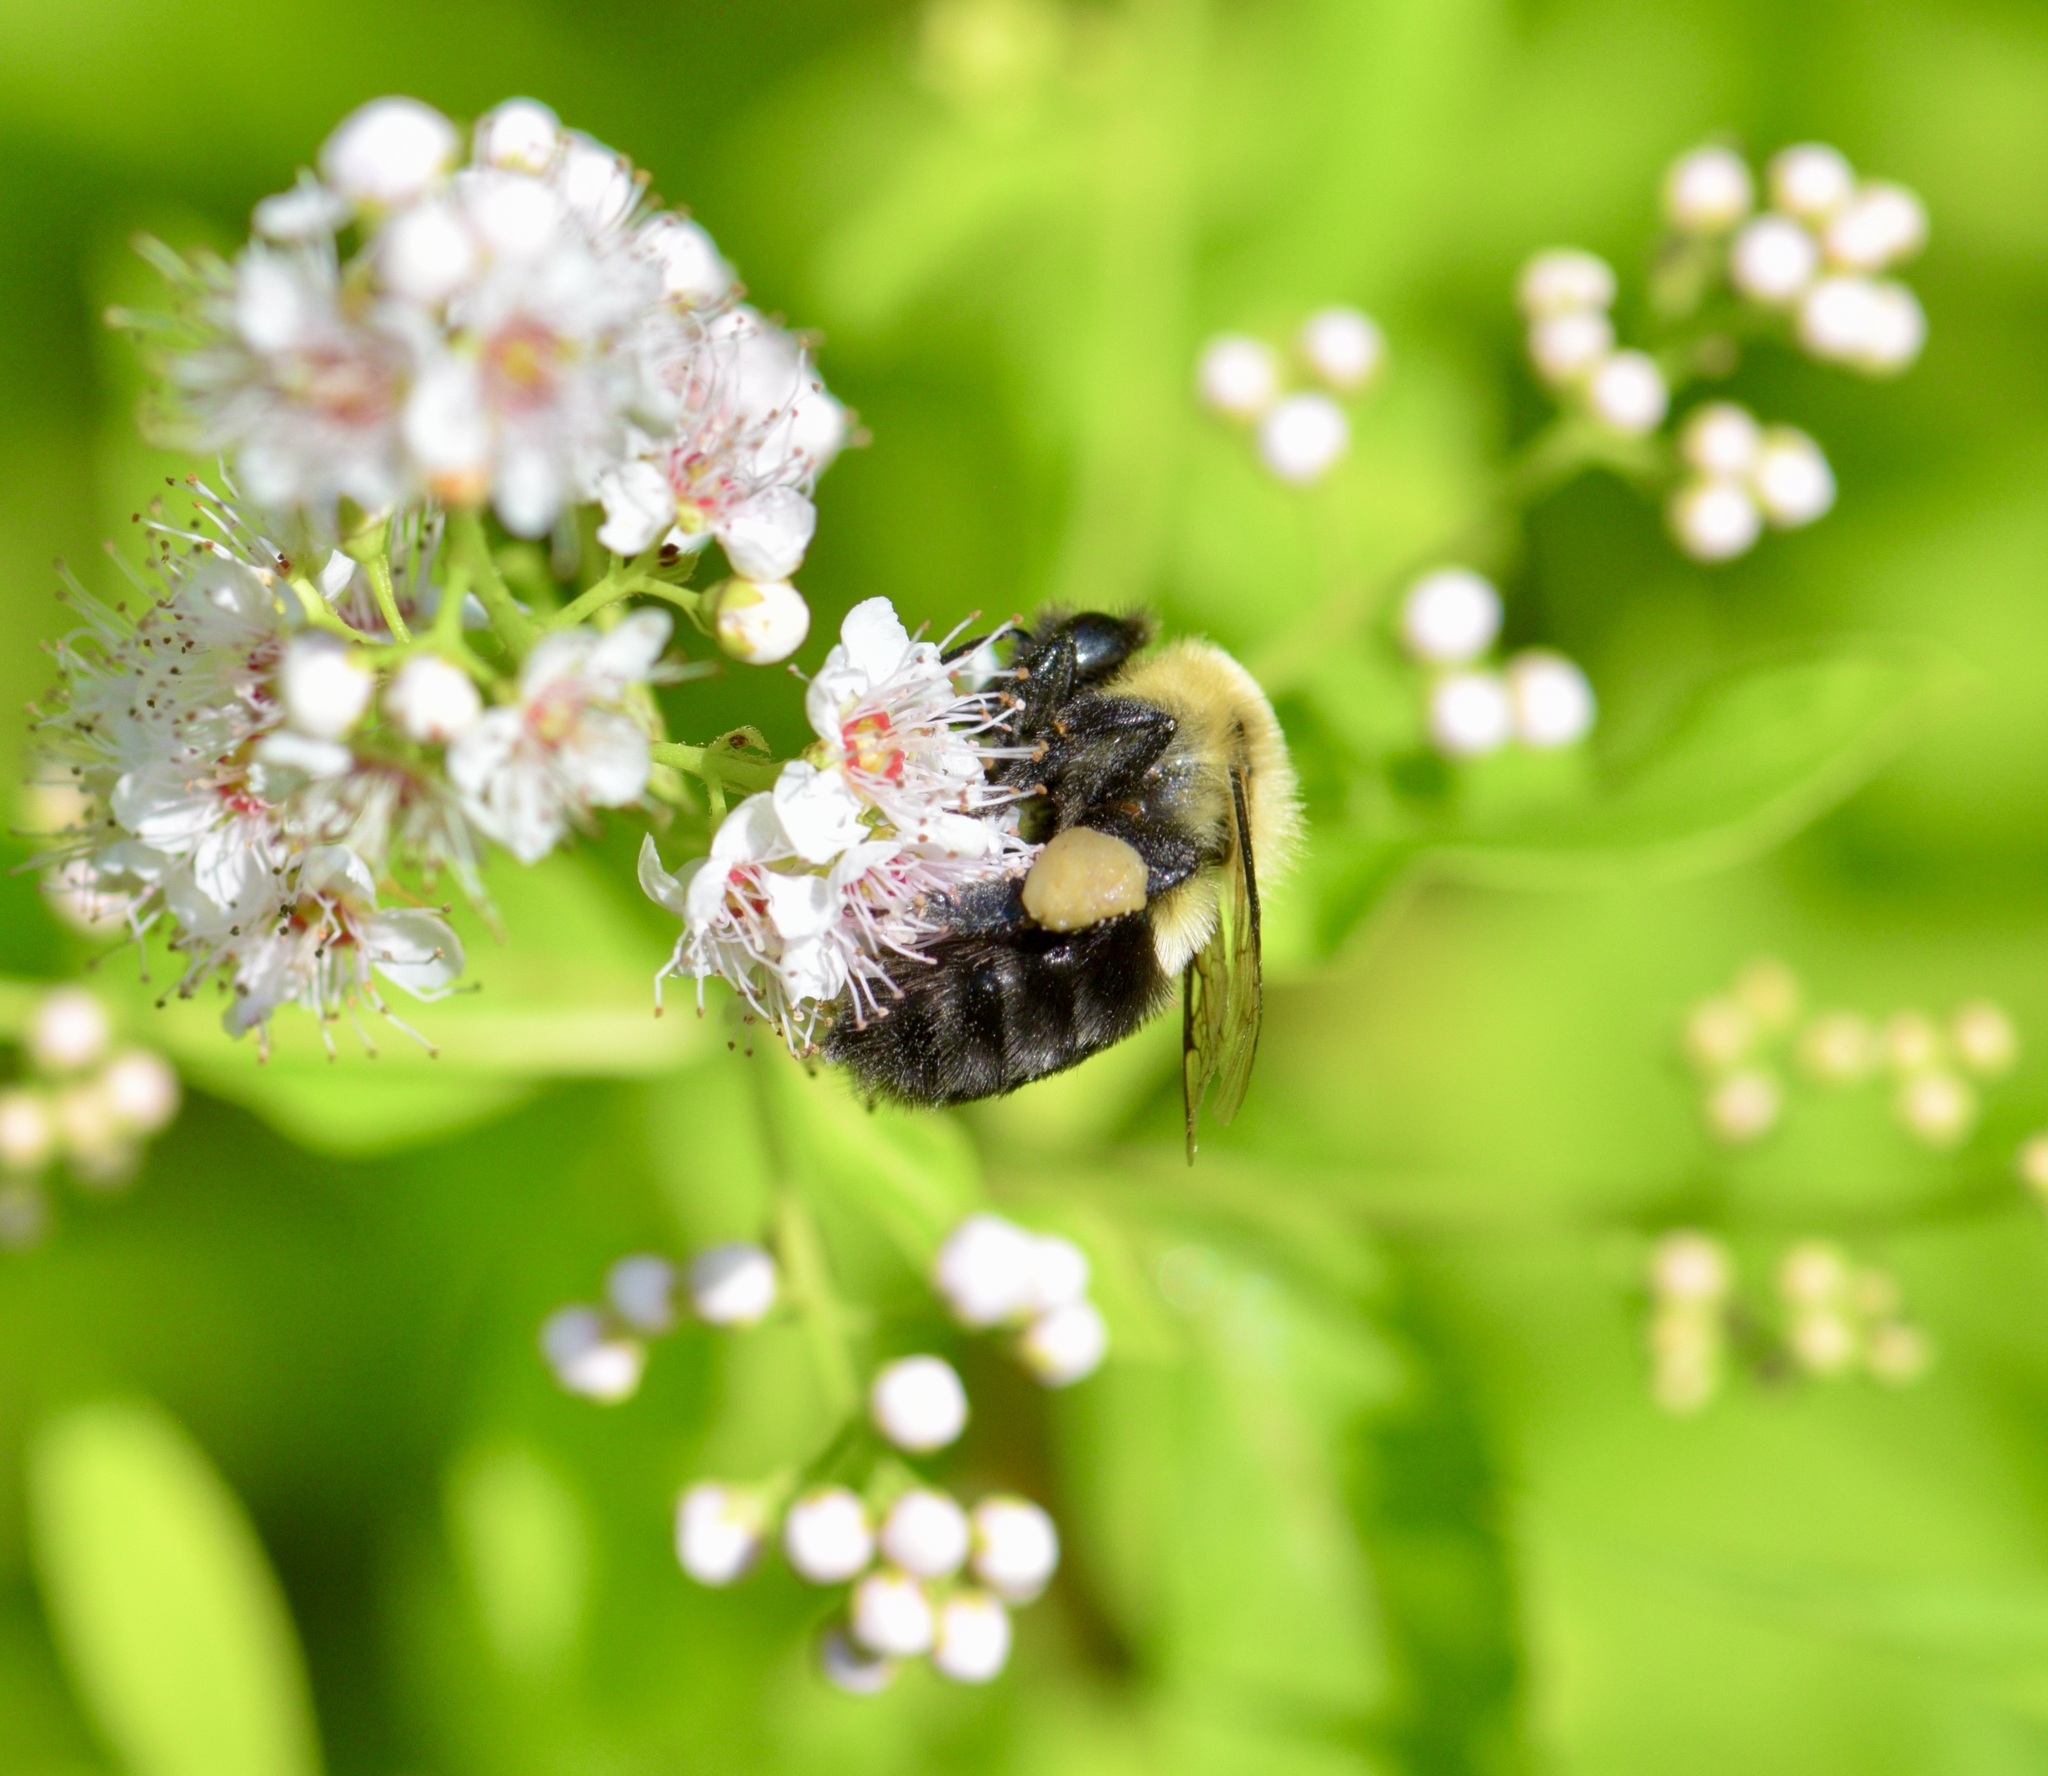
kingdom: Animalia
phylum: Arthropoda
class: Insecta
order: Hymenoptera
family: Apidae
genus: Bombus
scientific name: Bombus impatiens
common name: Common eastern bumble bee
